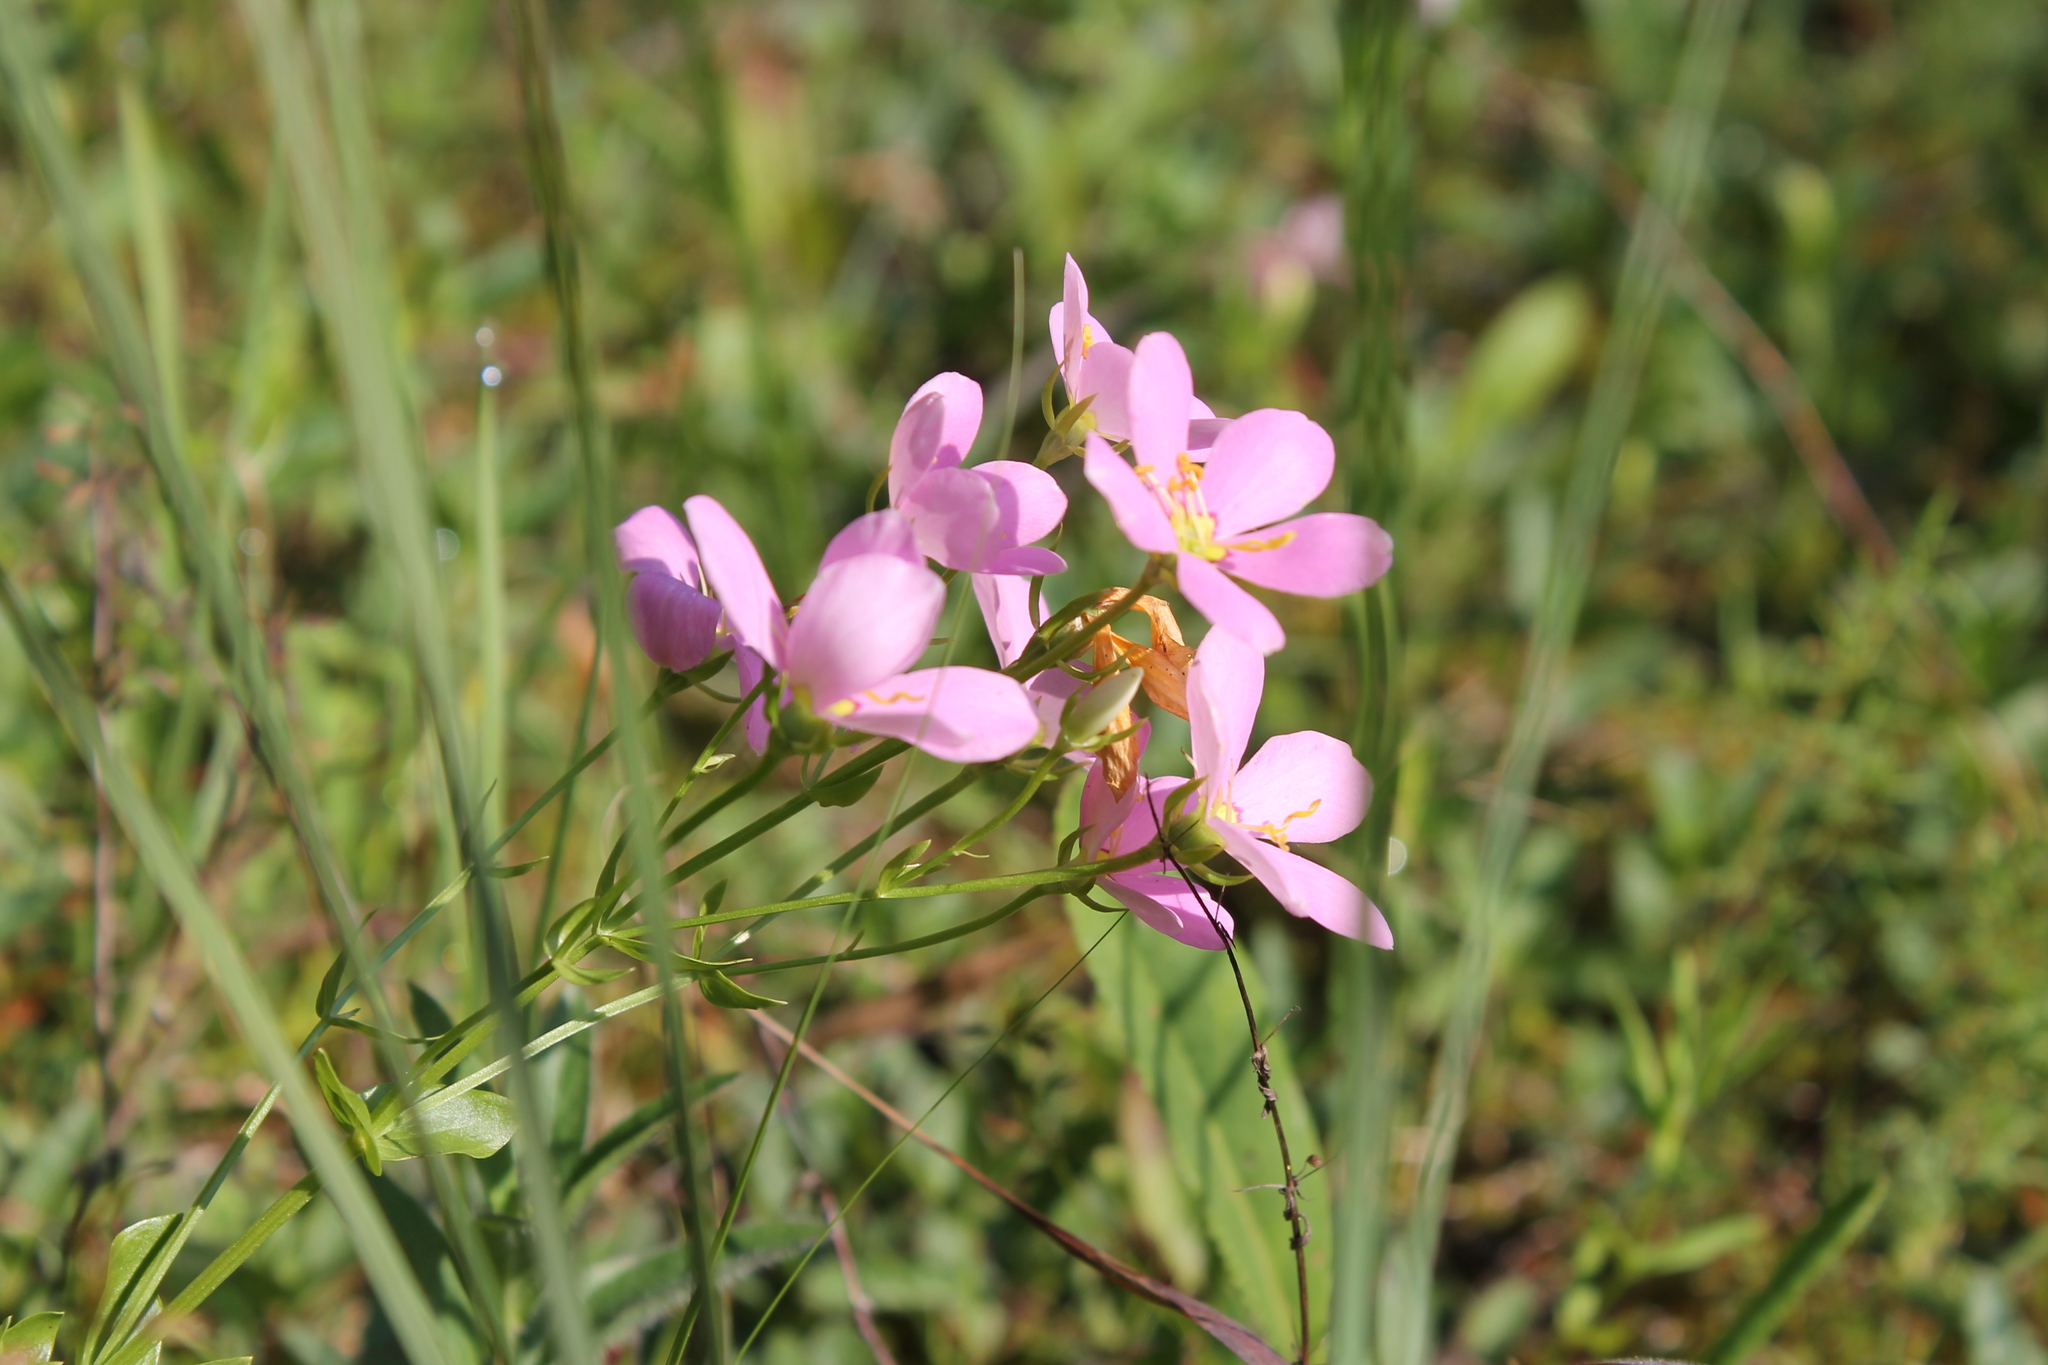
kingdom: Plantae
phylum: Tracheophyta
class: Magnoliopsida
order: Gentianales
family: Gentianaceae
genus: Sabatia
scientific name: Sabatia angularis
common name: Rose-pink
